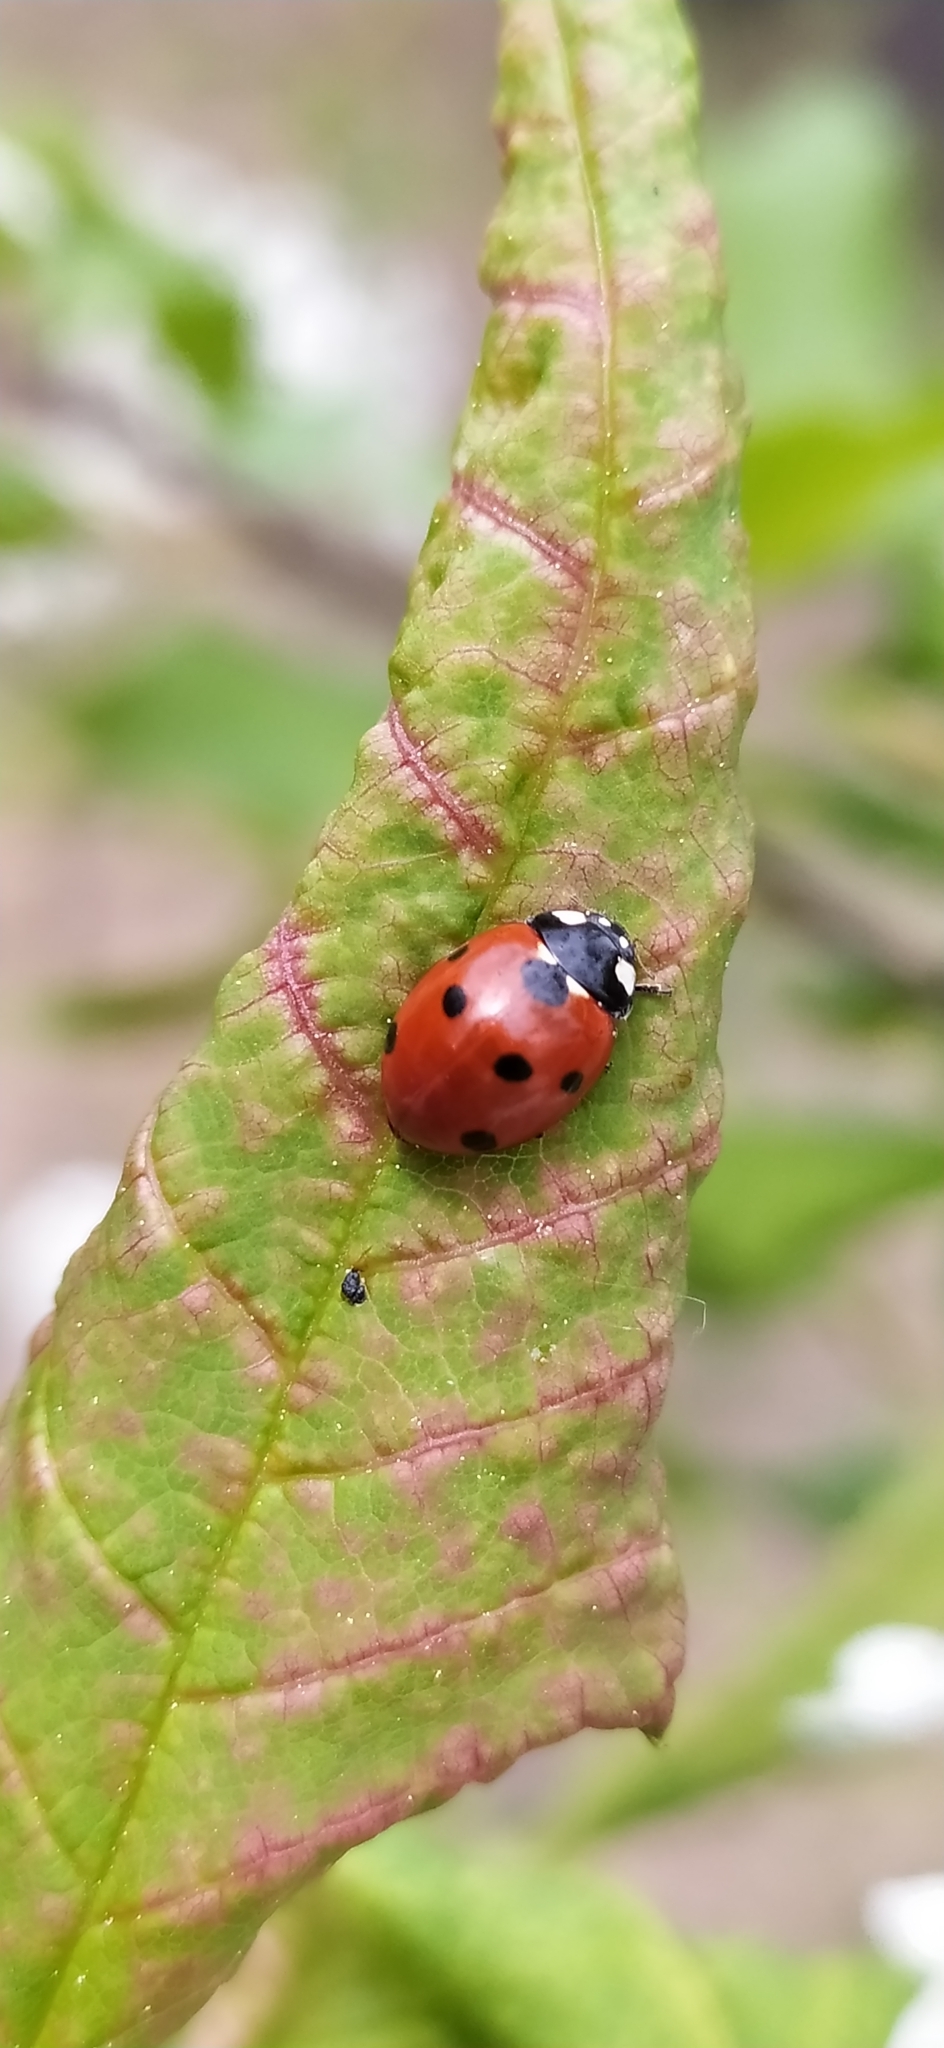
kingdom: Animalia
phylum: Arthropoda
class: Insecta
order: Coleoptera
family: Coccinellidae
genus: Coccinella
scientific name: Coccinella septempunctata
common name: Sevenspotted lady beetle
